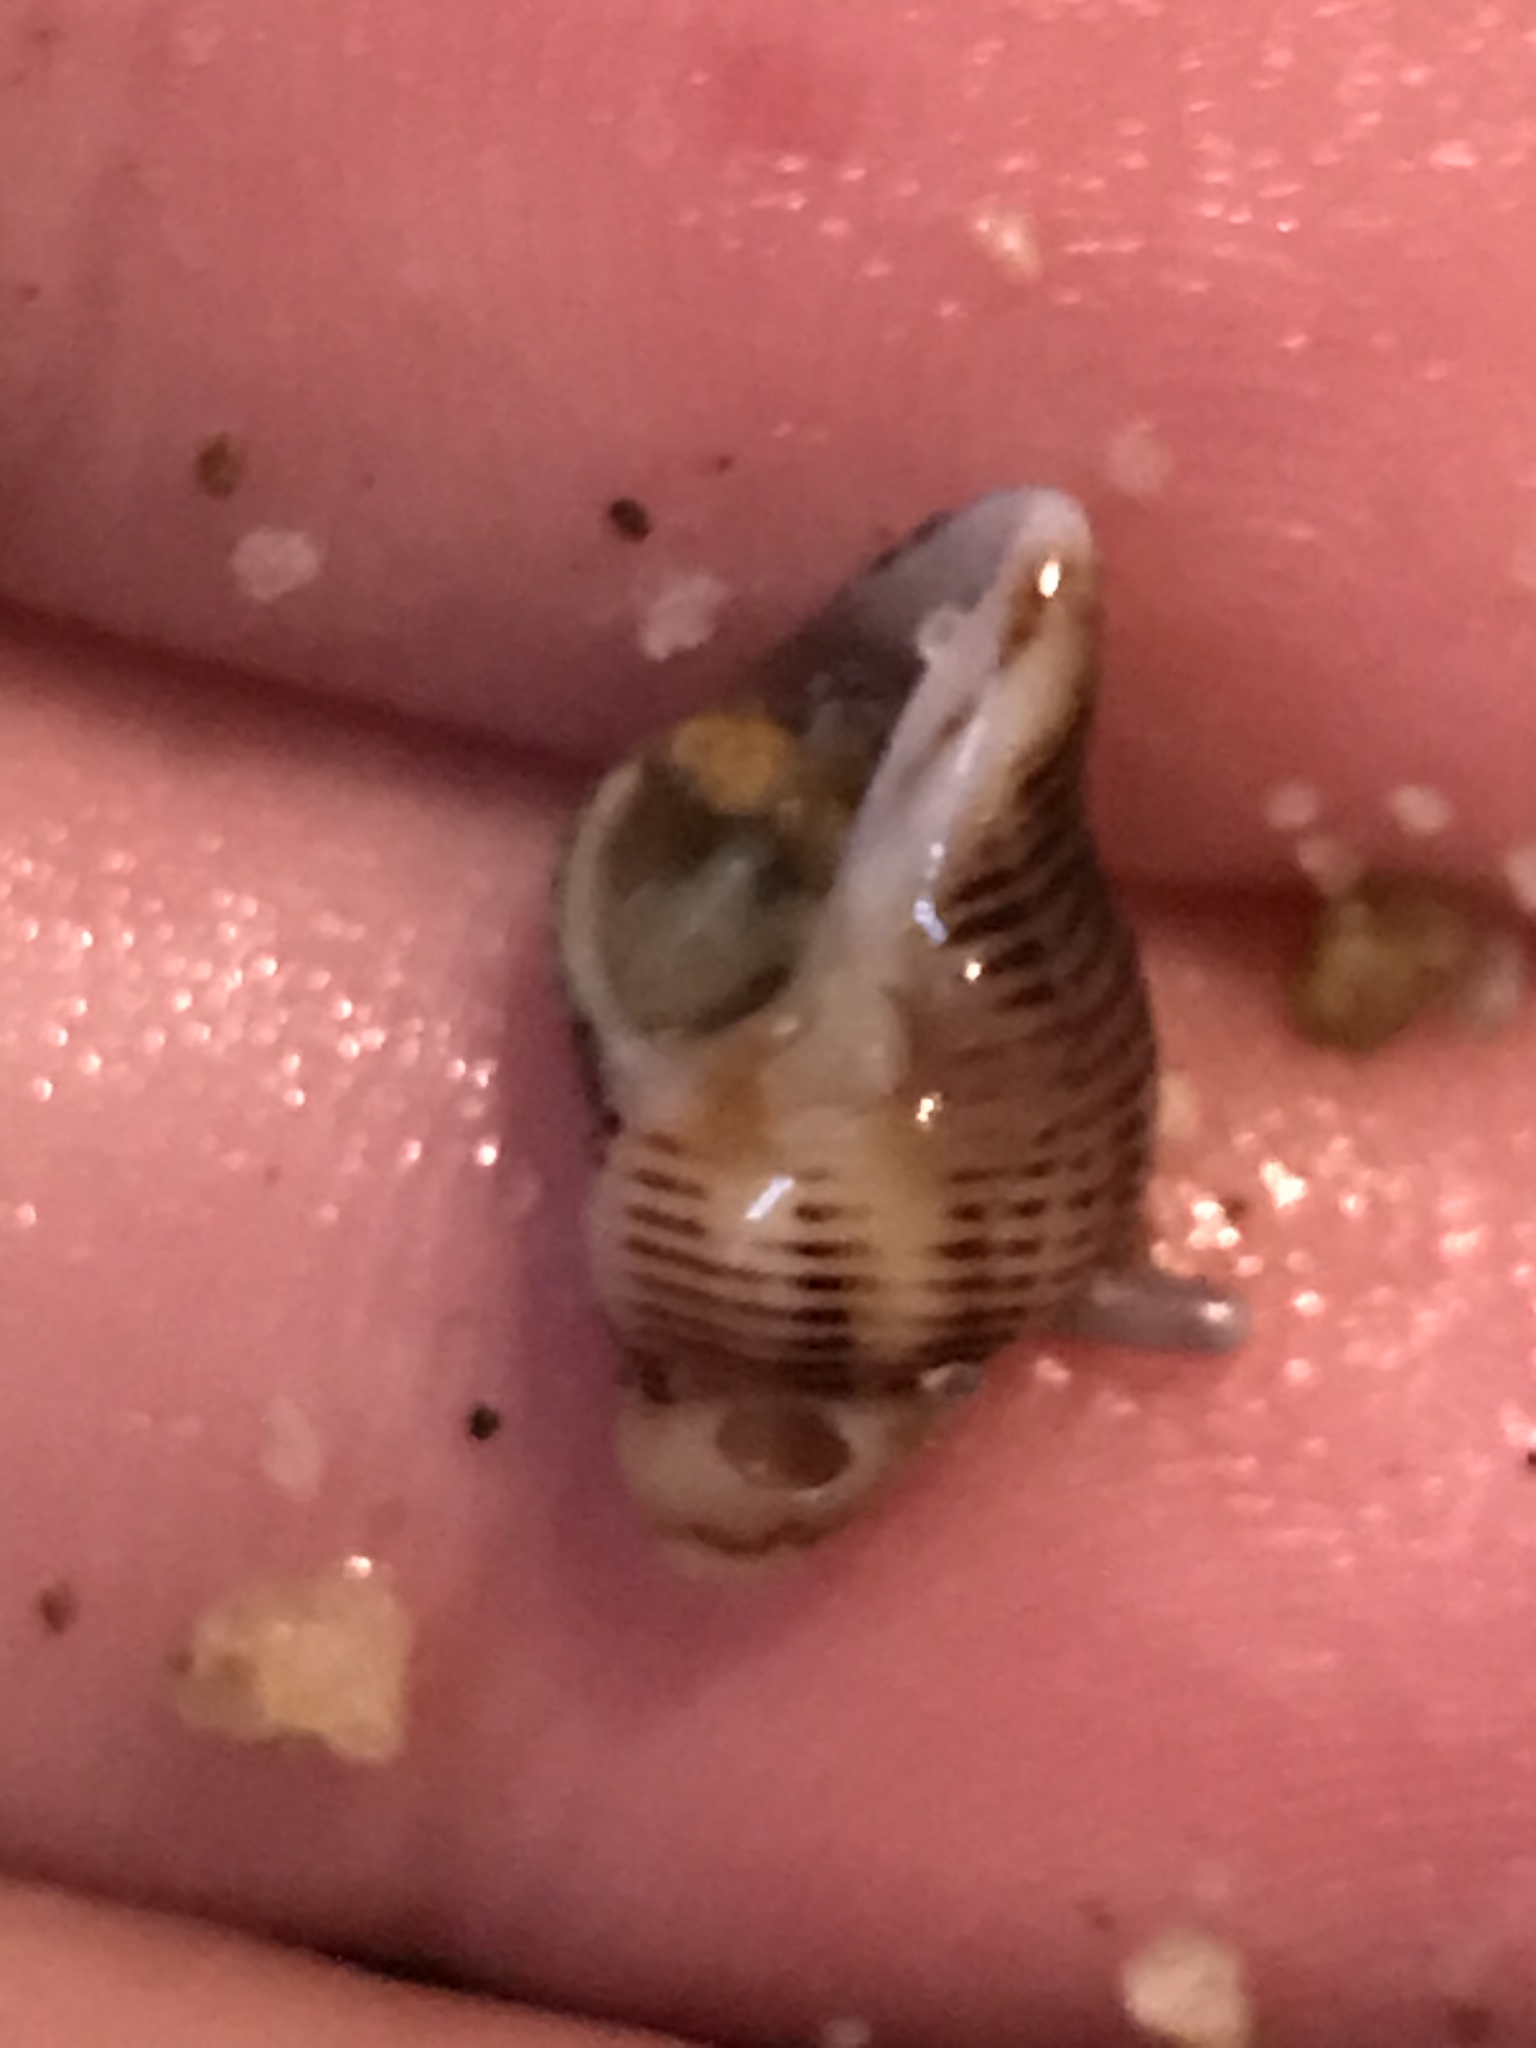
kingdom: Animalia
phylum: Mollusca
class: Gastropoda
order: Neogastropoda
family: Muricidae
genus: Paciocinebrina
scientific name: Paciocinebrina lurida
